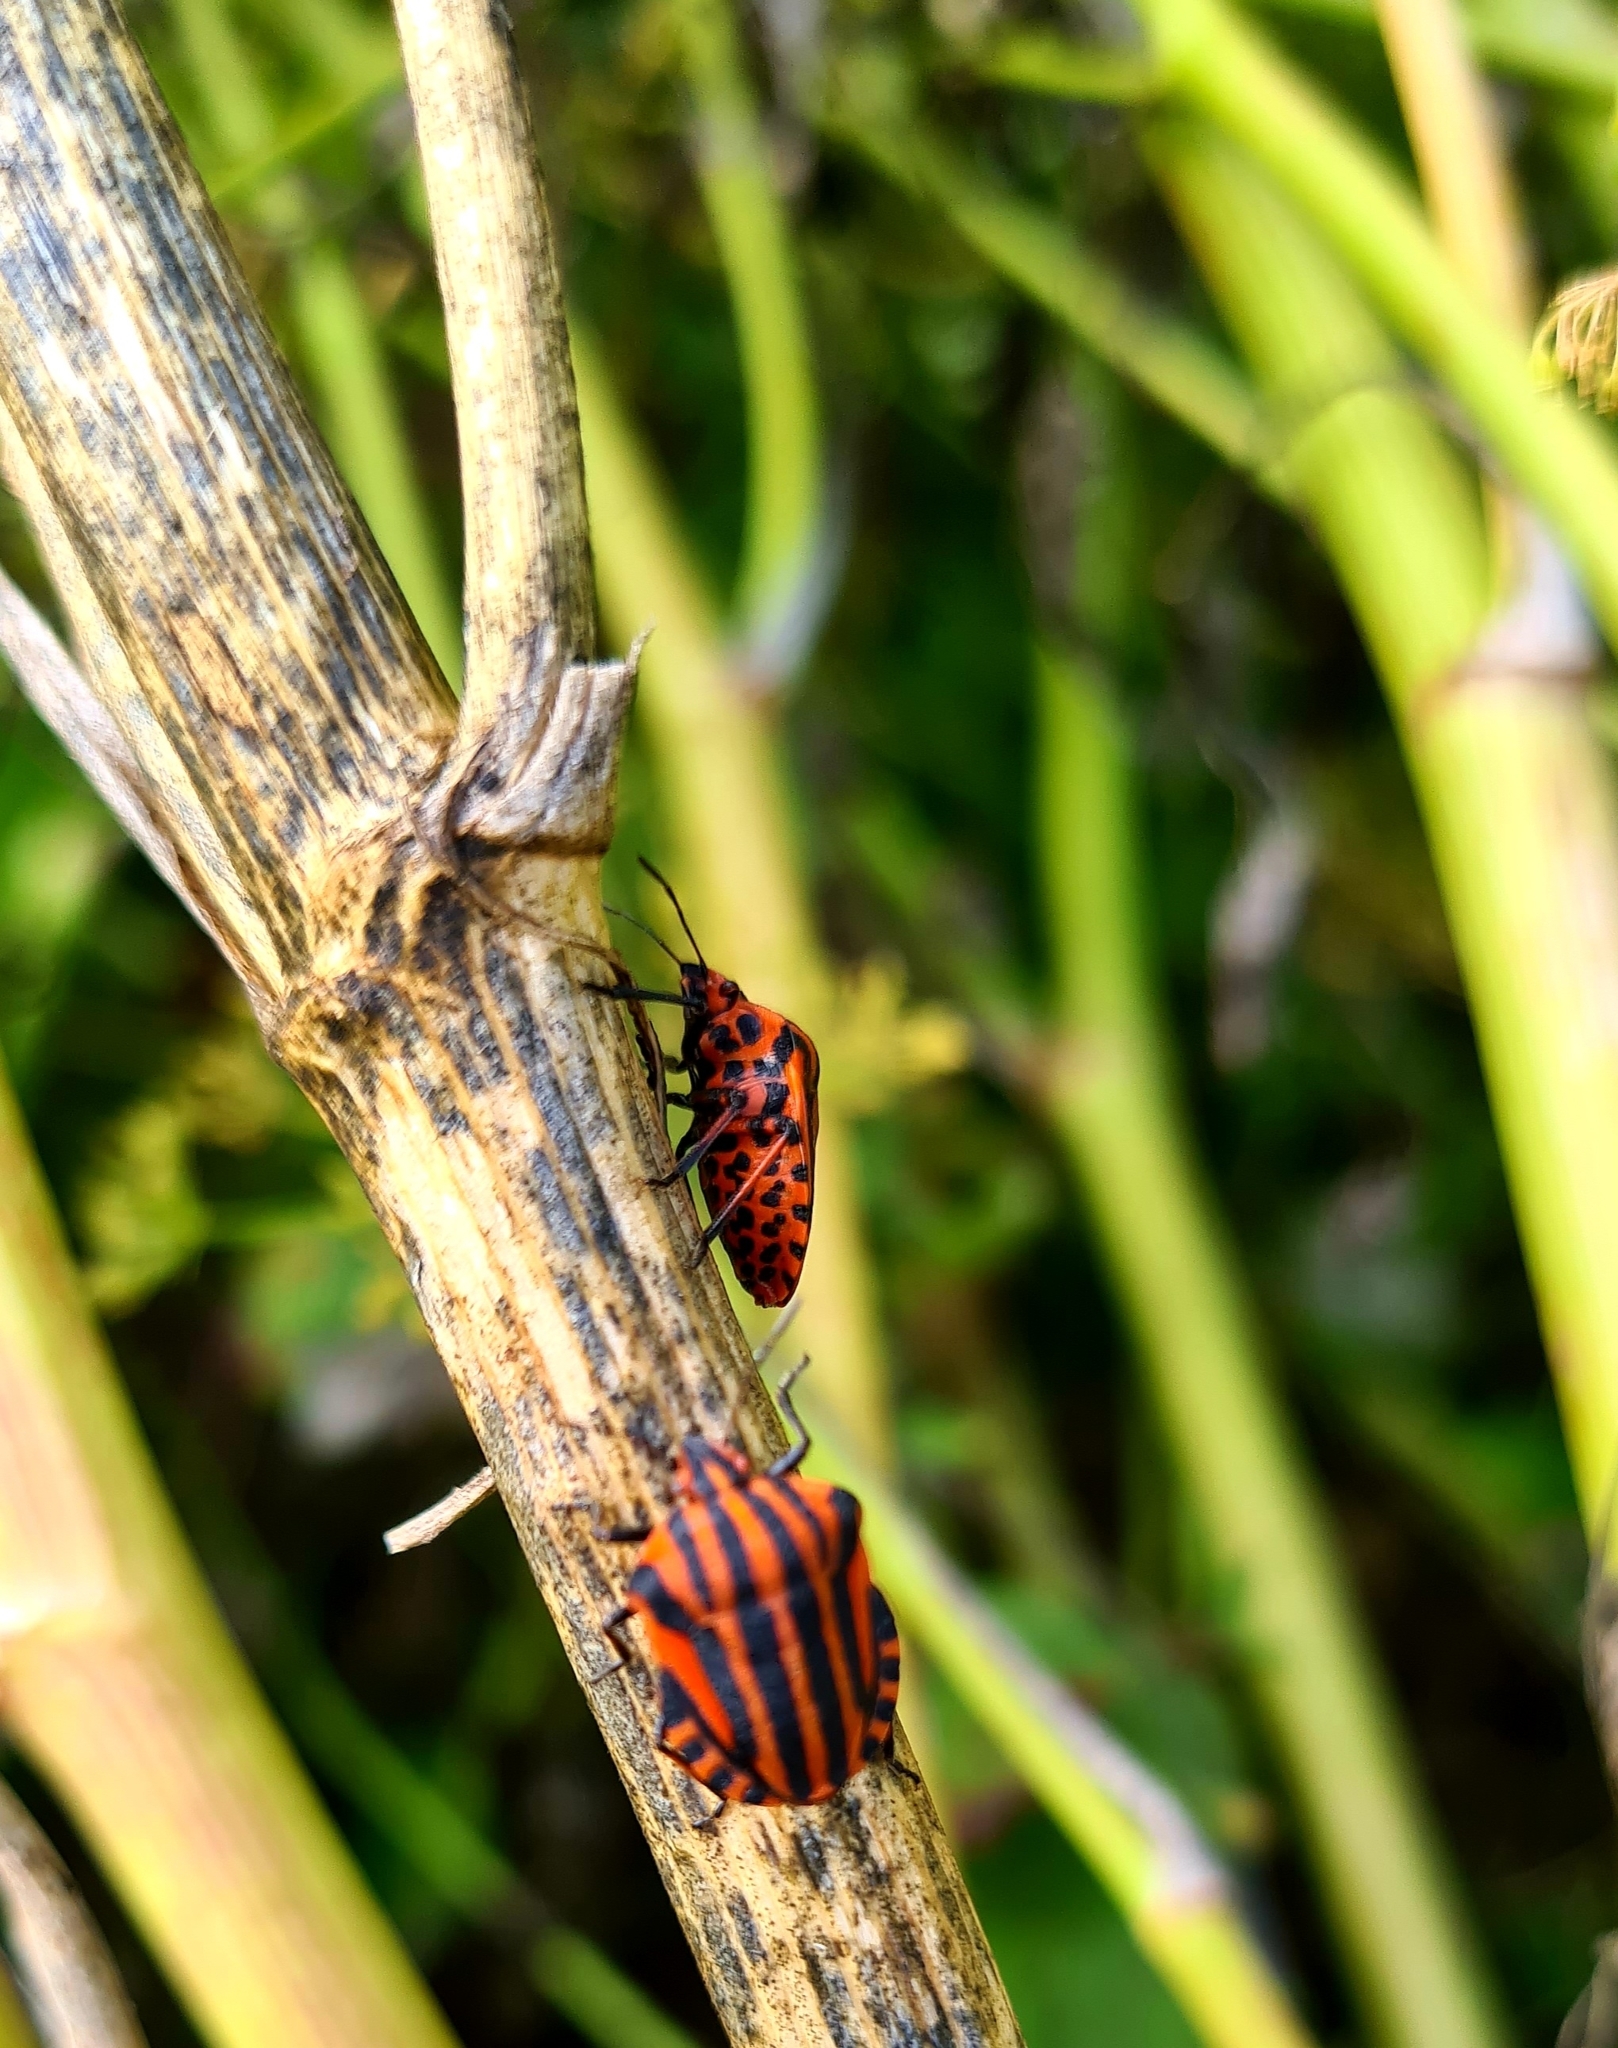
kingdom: Animalia
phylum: Arthropoda
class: Insecta
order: Hemiptera
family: Pentatomidae
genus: Graphosoma
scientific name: Graphosoma italicum
